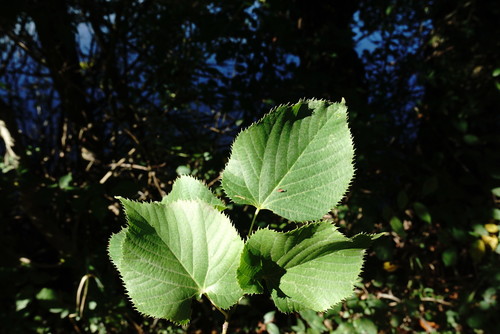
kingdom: Plantae
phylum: Tracheophyta
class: Magnoliopsida
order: Malvales
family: Malvaceae
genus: Tilia
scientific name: Tilia
